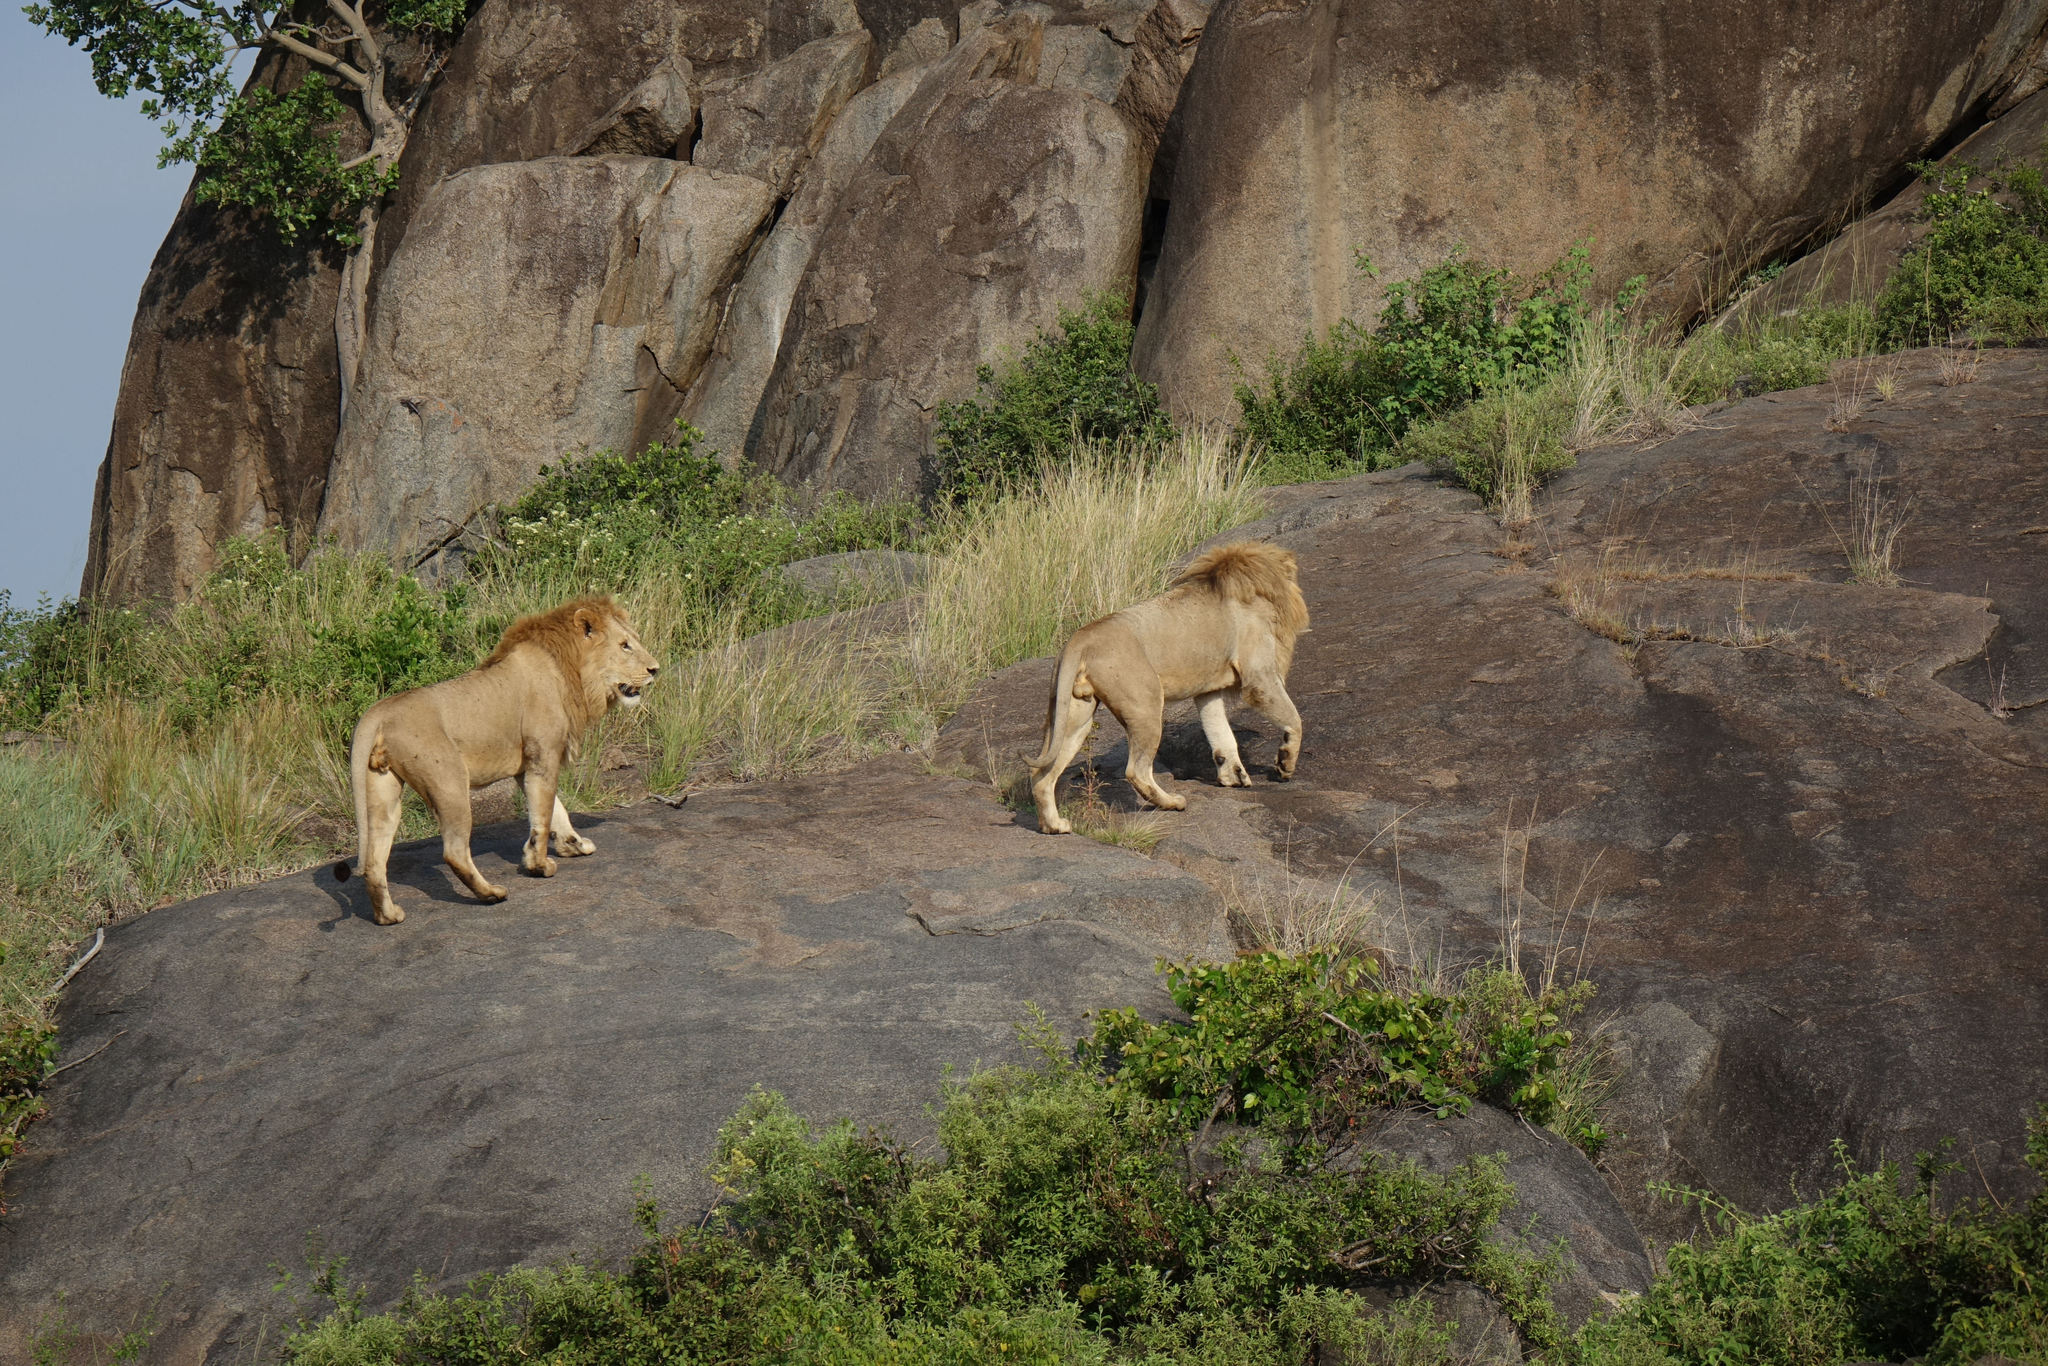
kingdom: Animalia
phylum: Chordata
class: Mammalia
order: Carnivora
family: Felidae
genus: Panthera
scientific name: Panthera leo
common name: Lion
